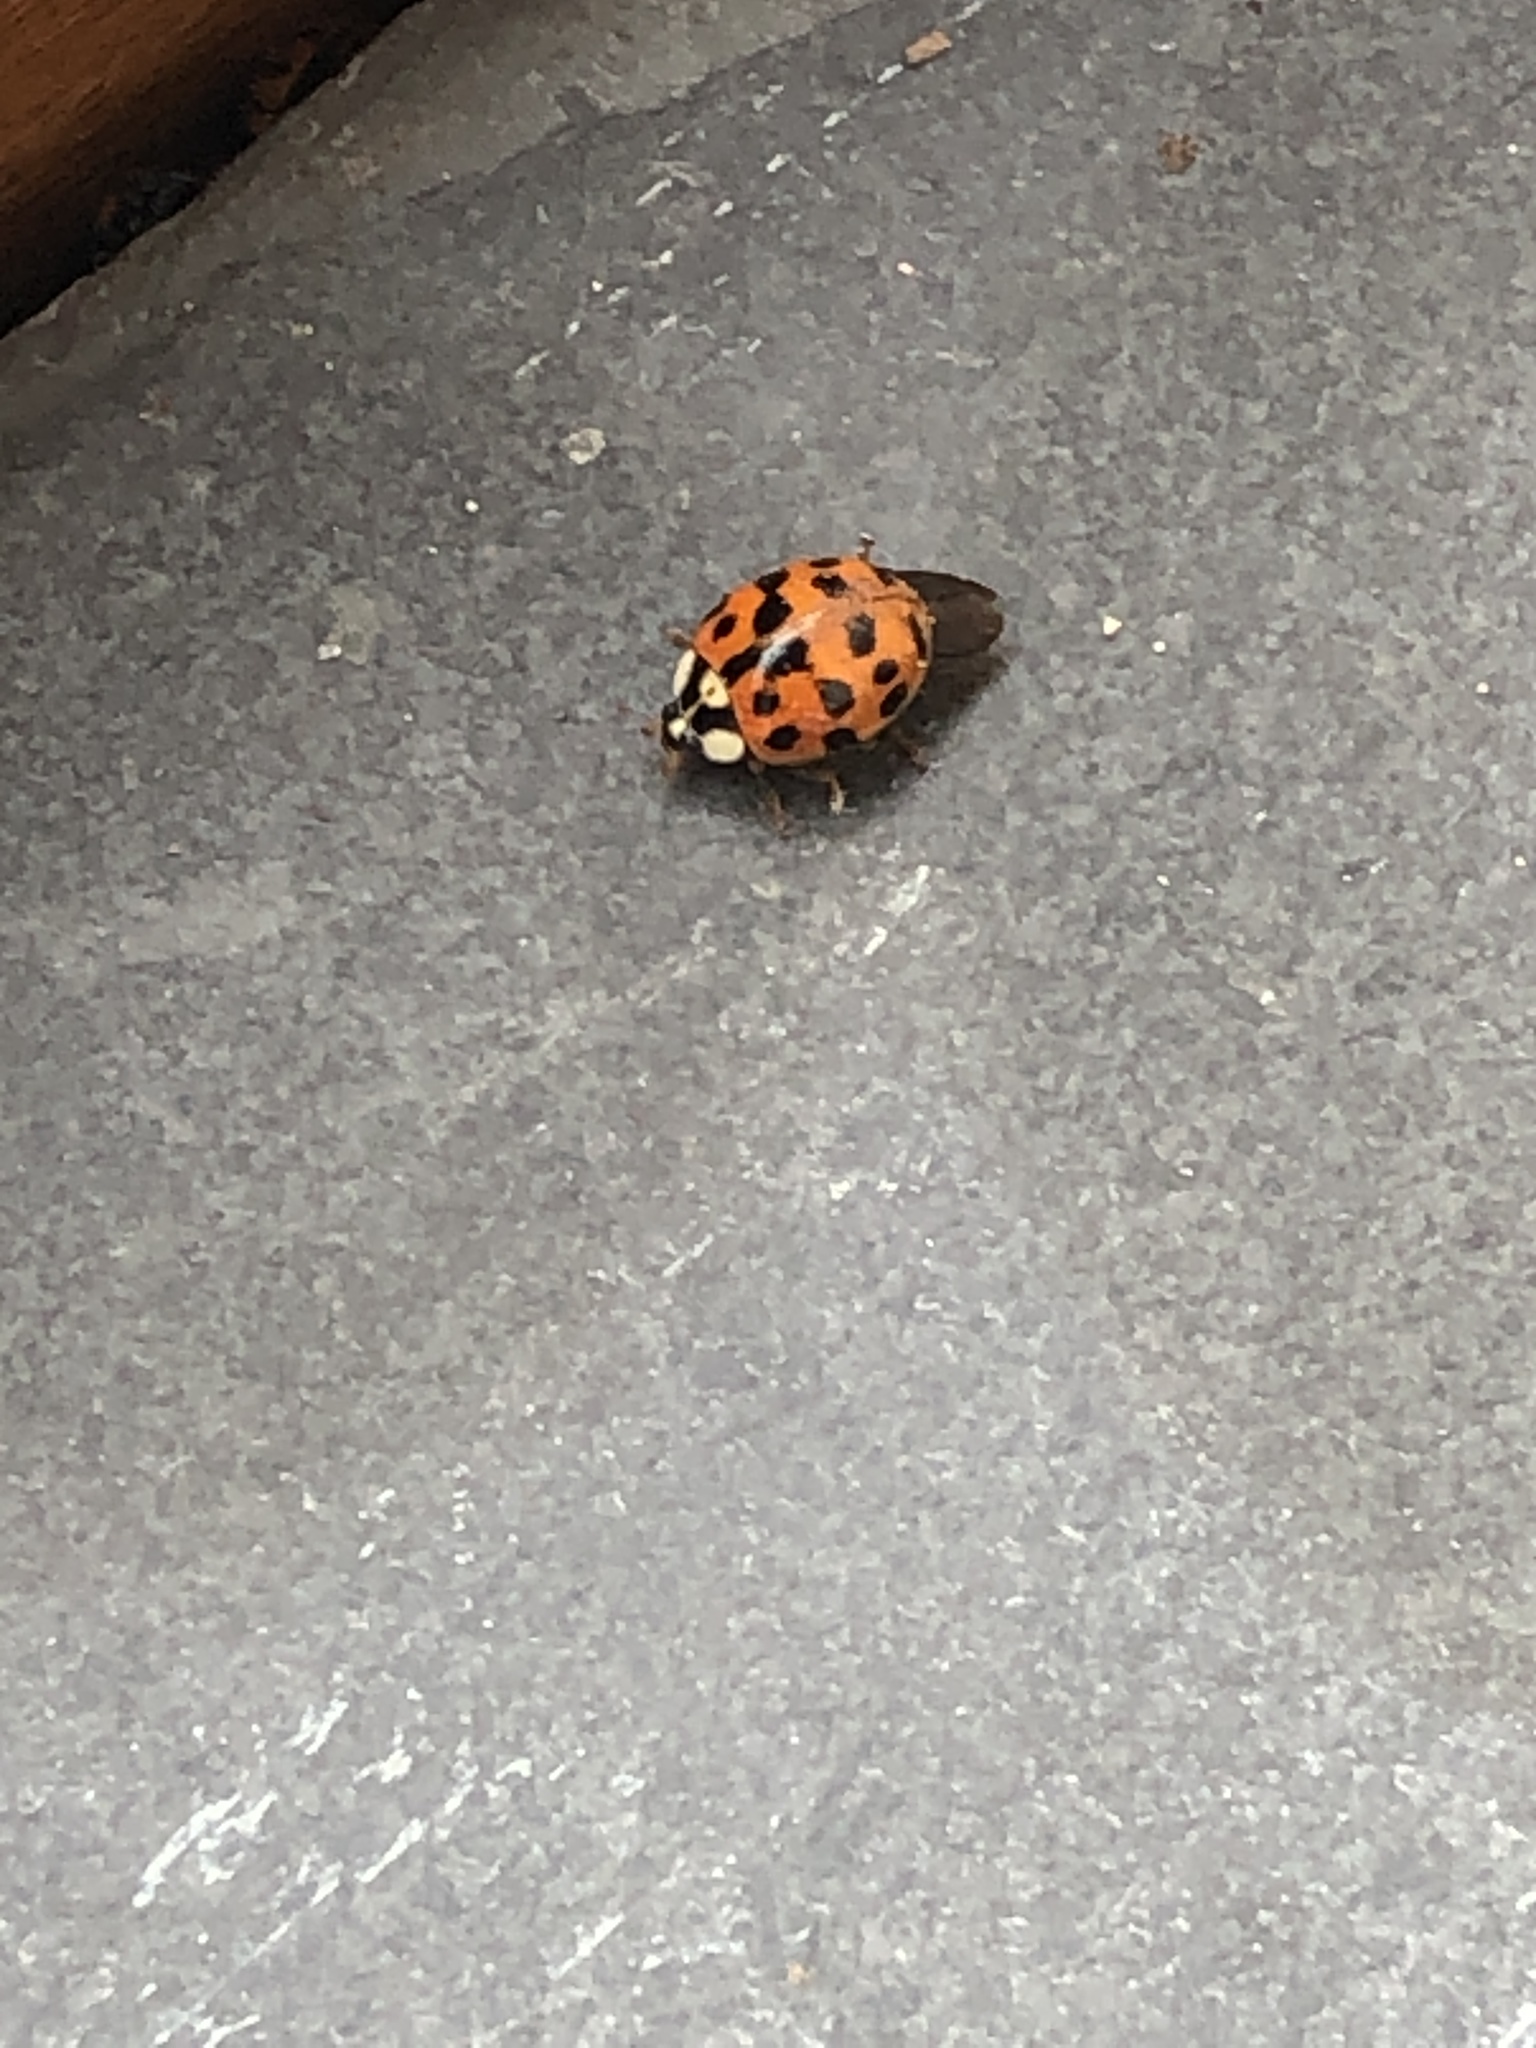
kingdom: Animalia
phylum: Arthropoda
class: Insecta
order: Coleoptera
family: Coccinellidae
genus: Harmonia
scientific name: Harmonia axyridis
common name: Harlequin ladybird
